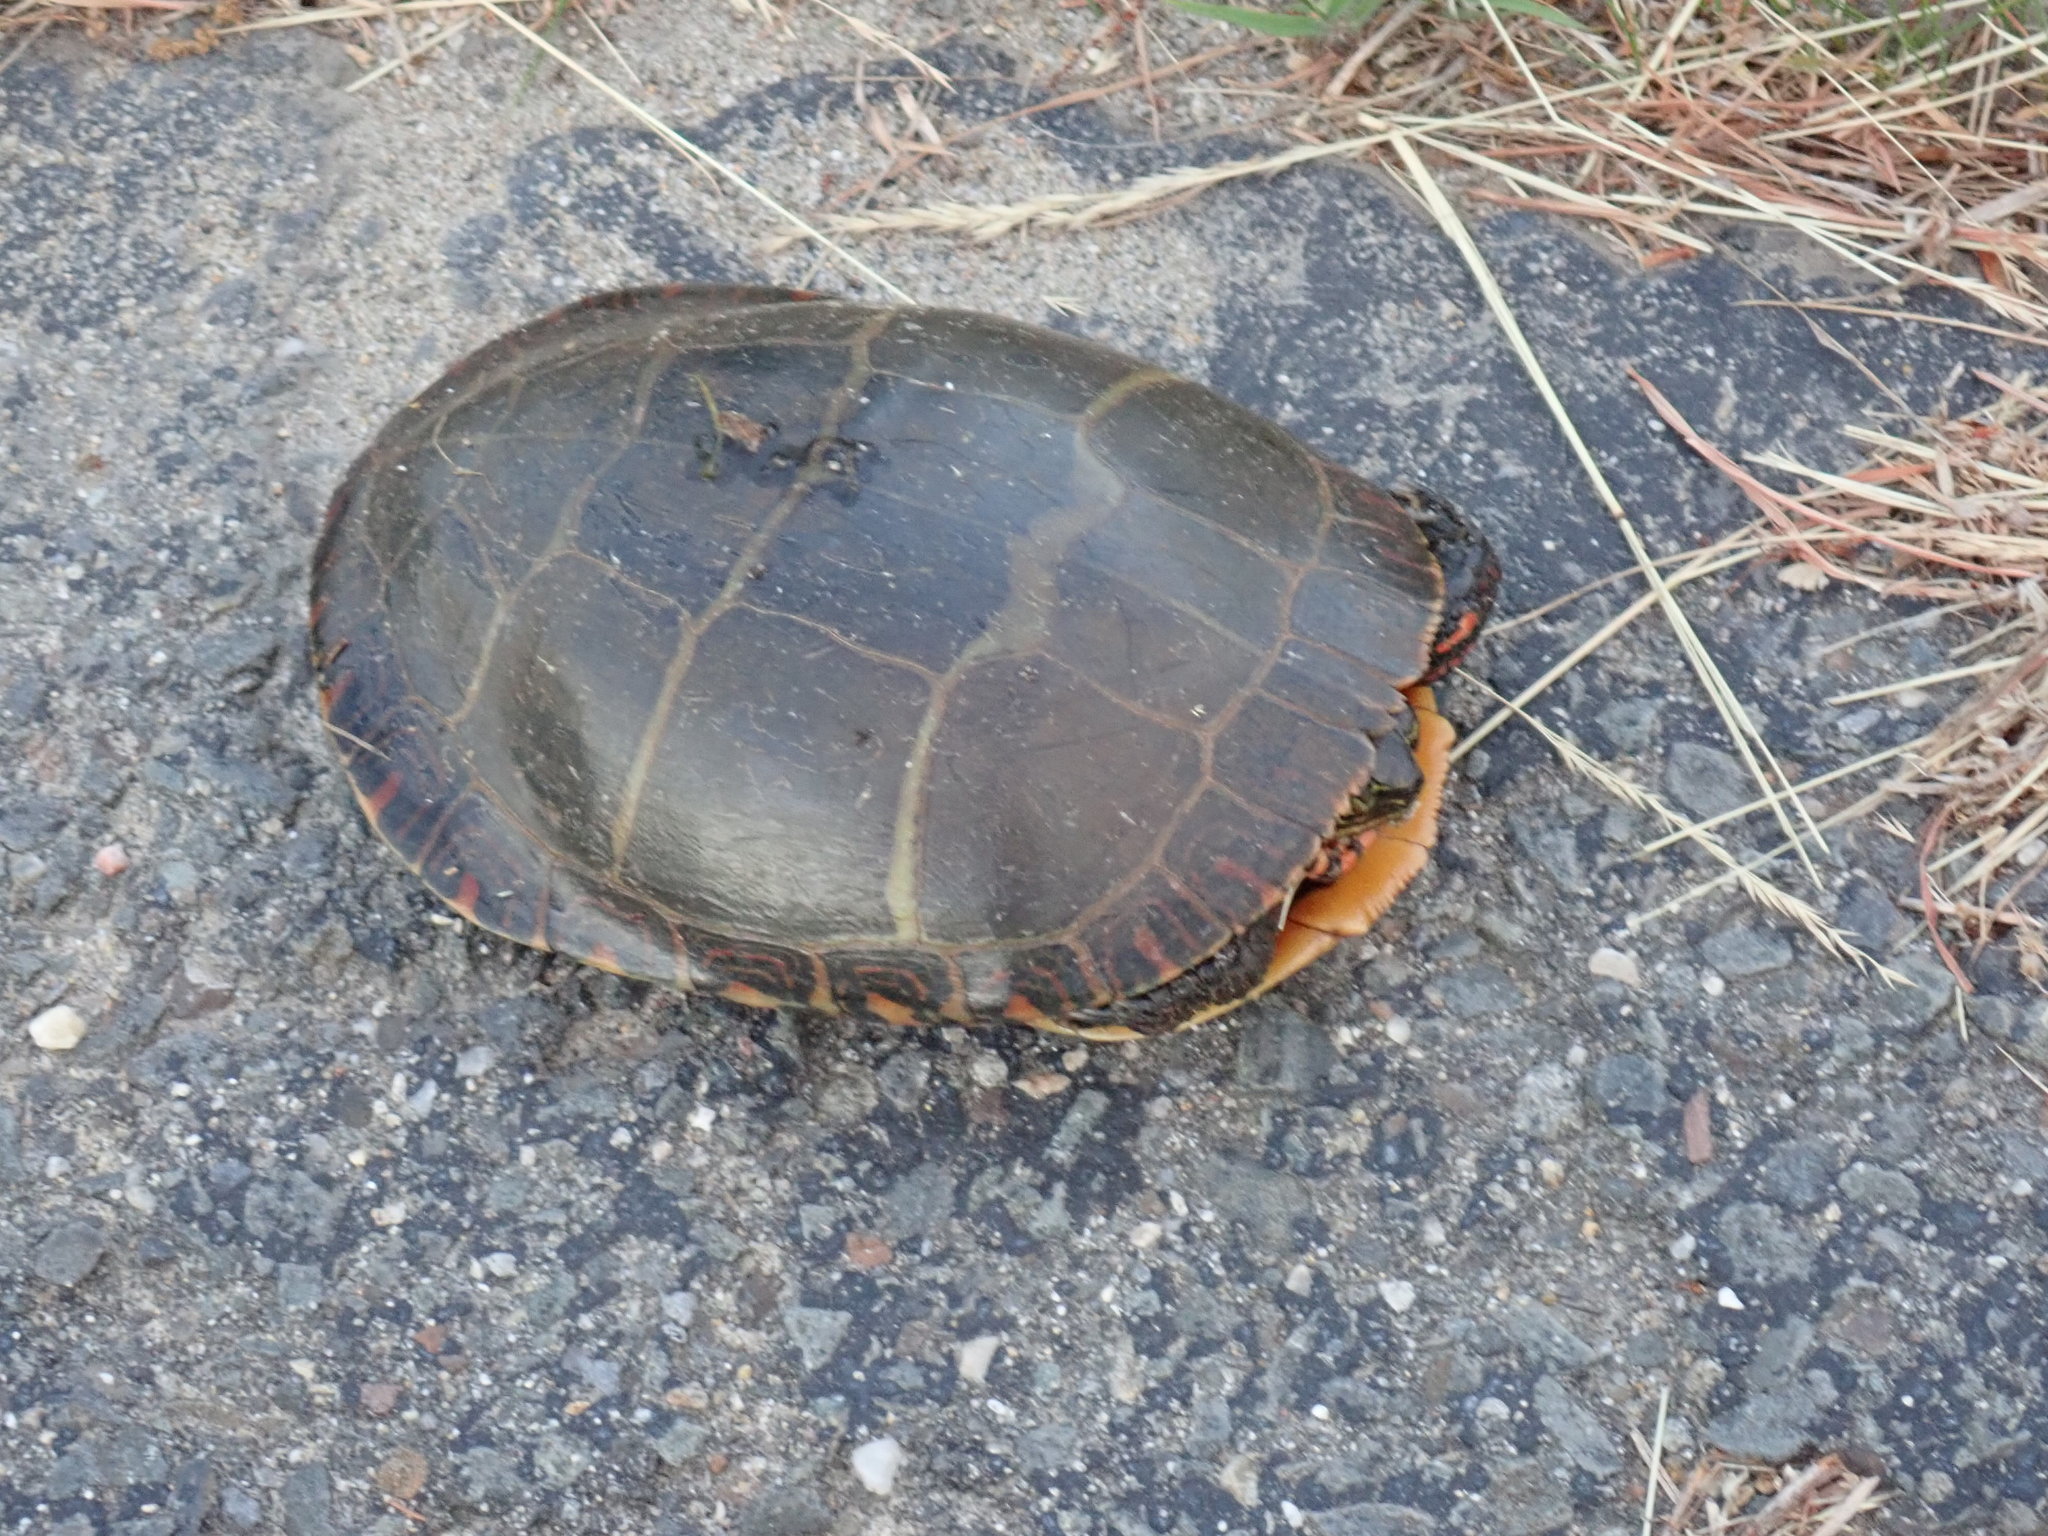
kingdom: Animalia
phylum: Chordata
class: Testudines
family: Emydidae
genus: Chrysemys
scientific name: Chrysemys picta
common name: Painted turtle
